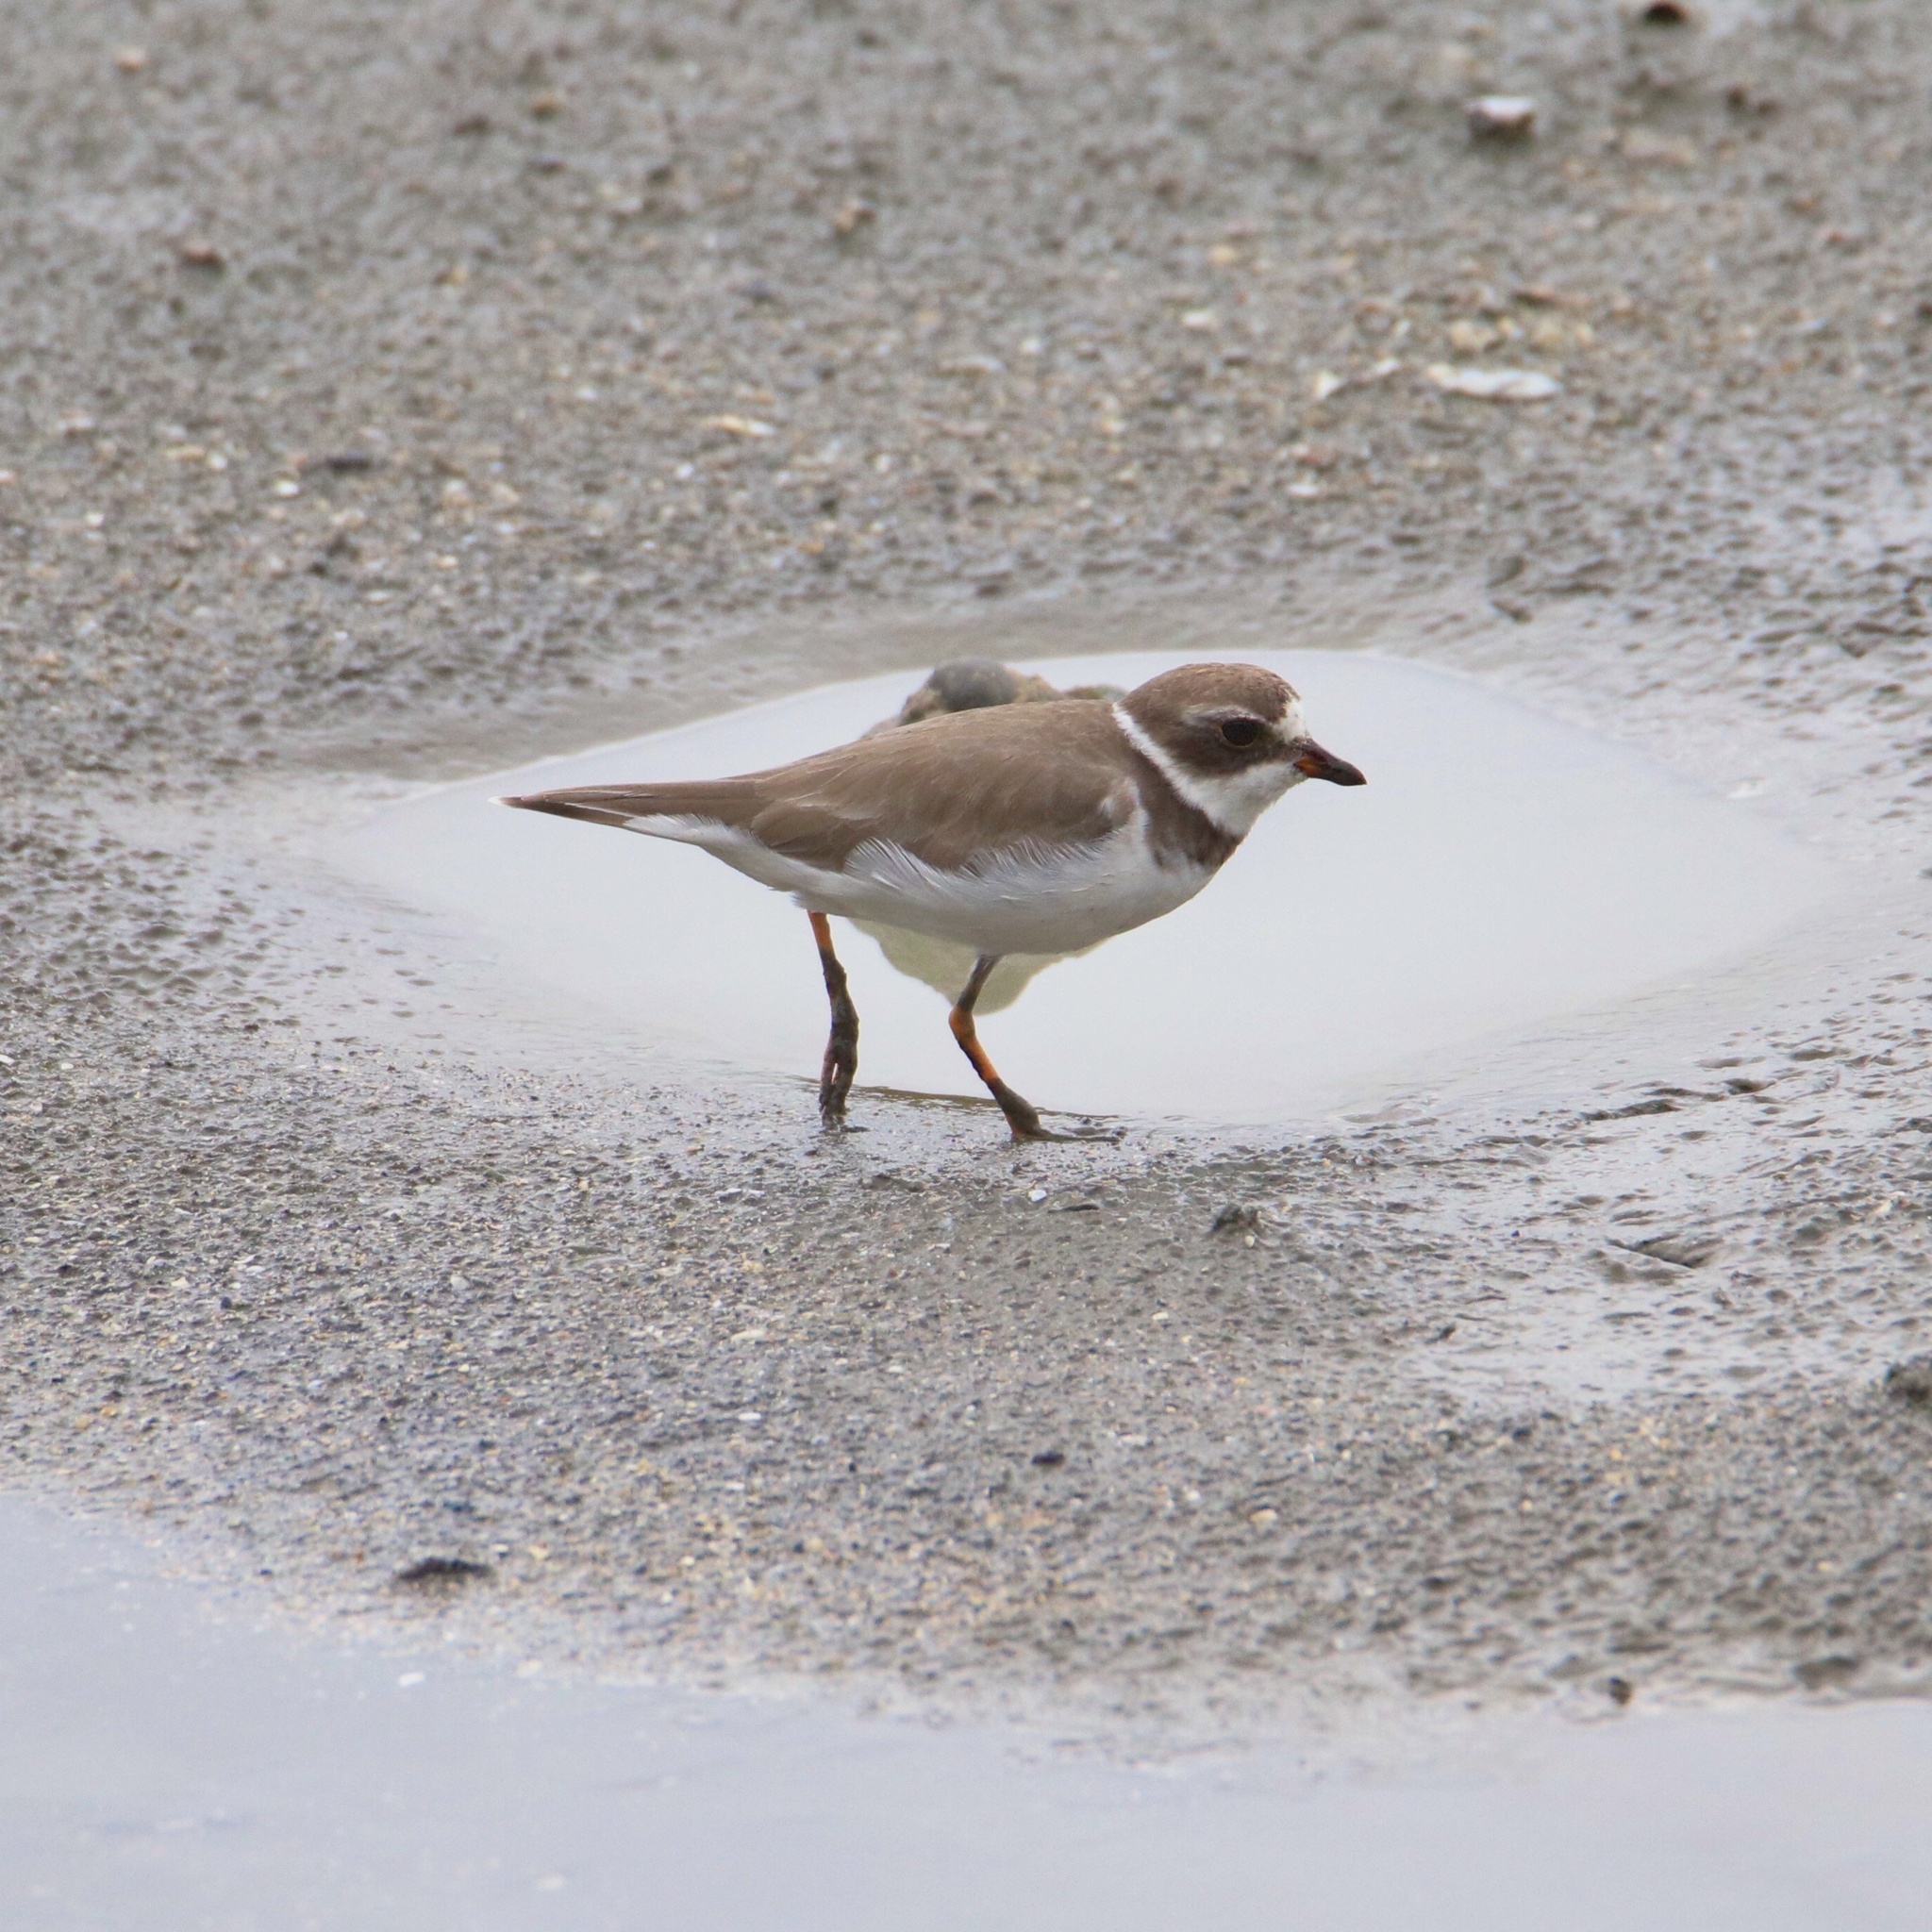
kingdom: Animalia
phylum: Chordata
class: Aves
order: Charadriiformes
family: Charadriidae
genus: Charadrius
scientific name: Charadrius semipalmatus
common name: Semipalmated plover
